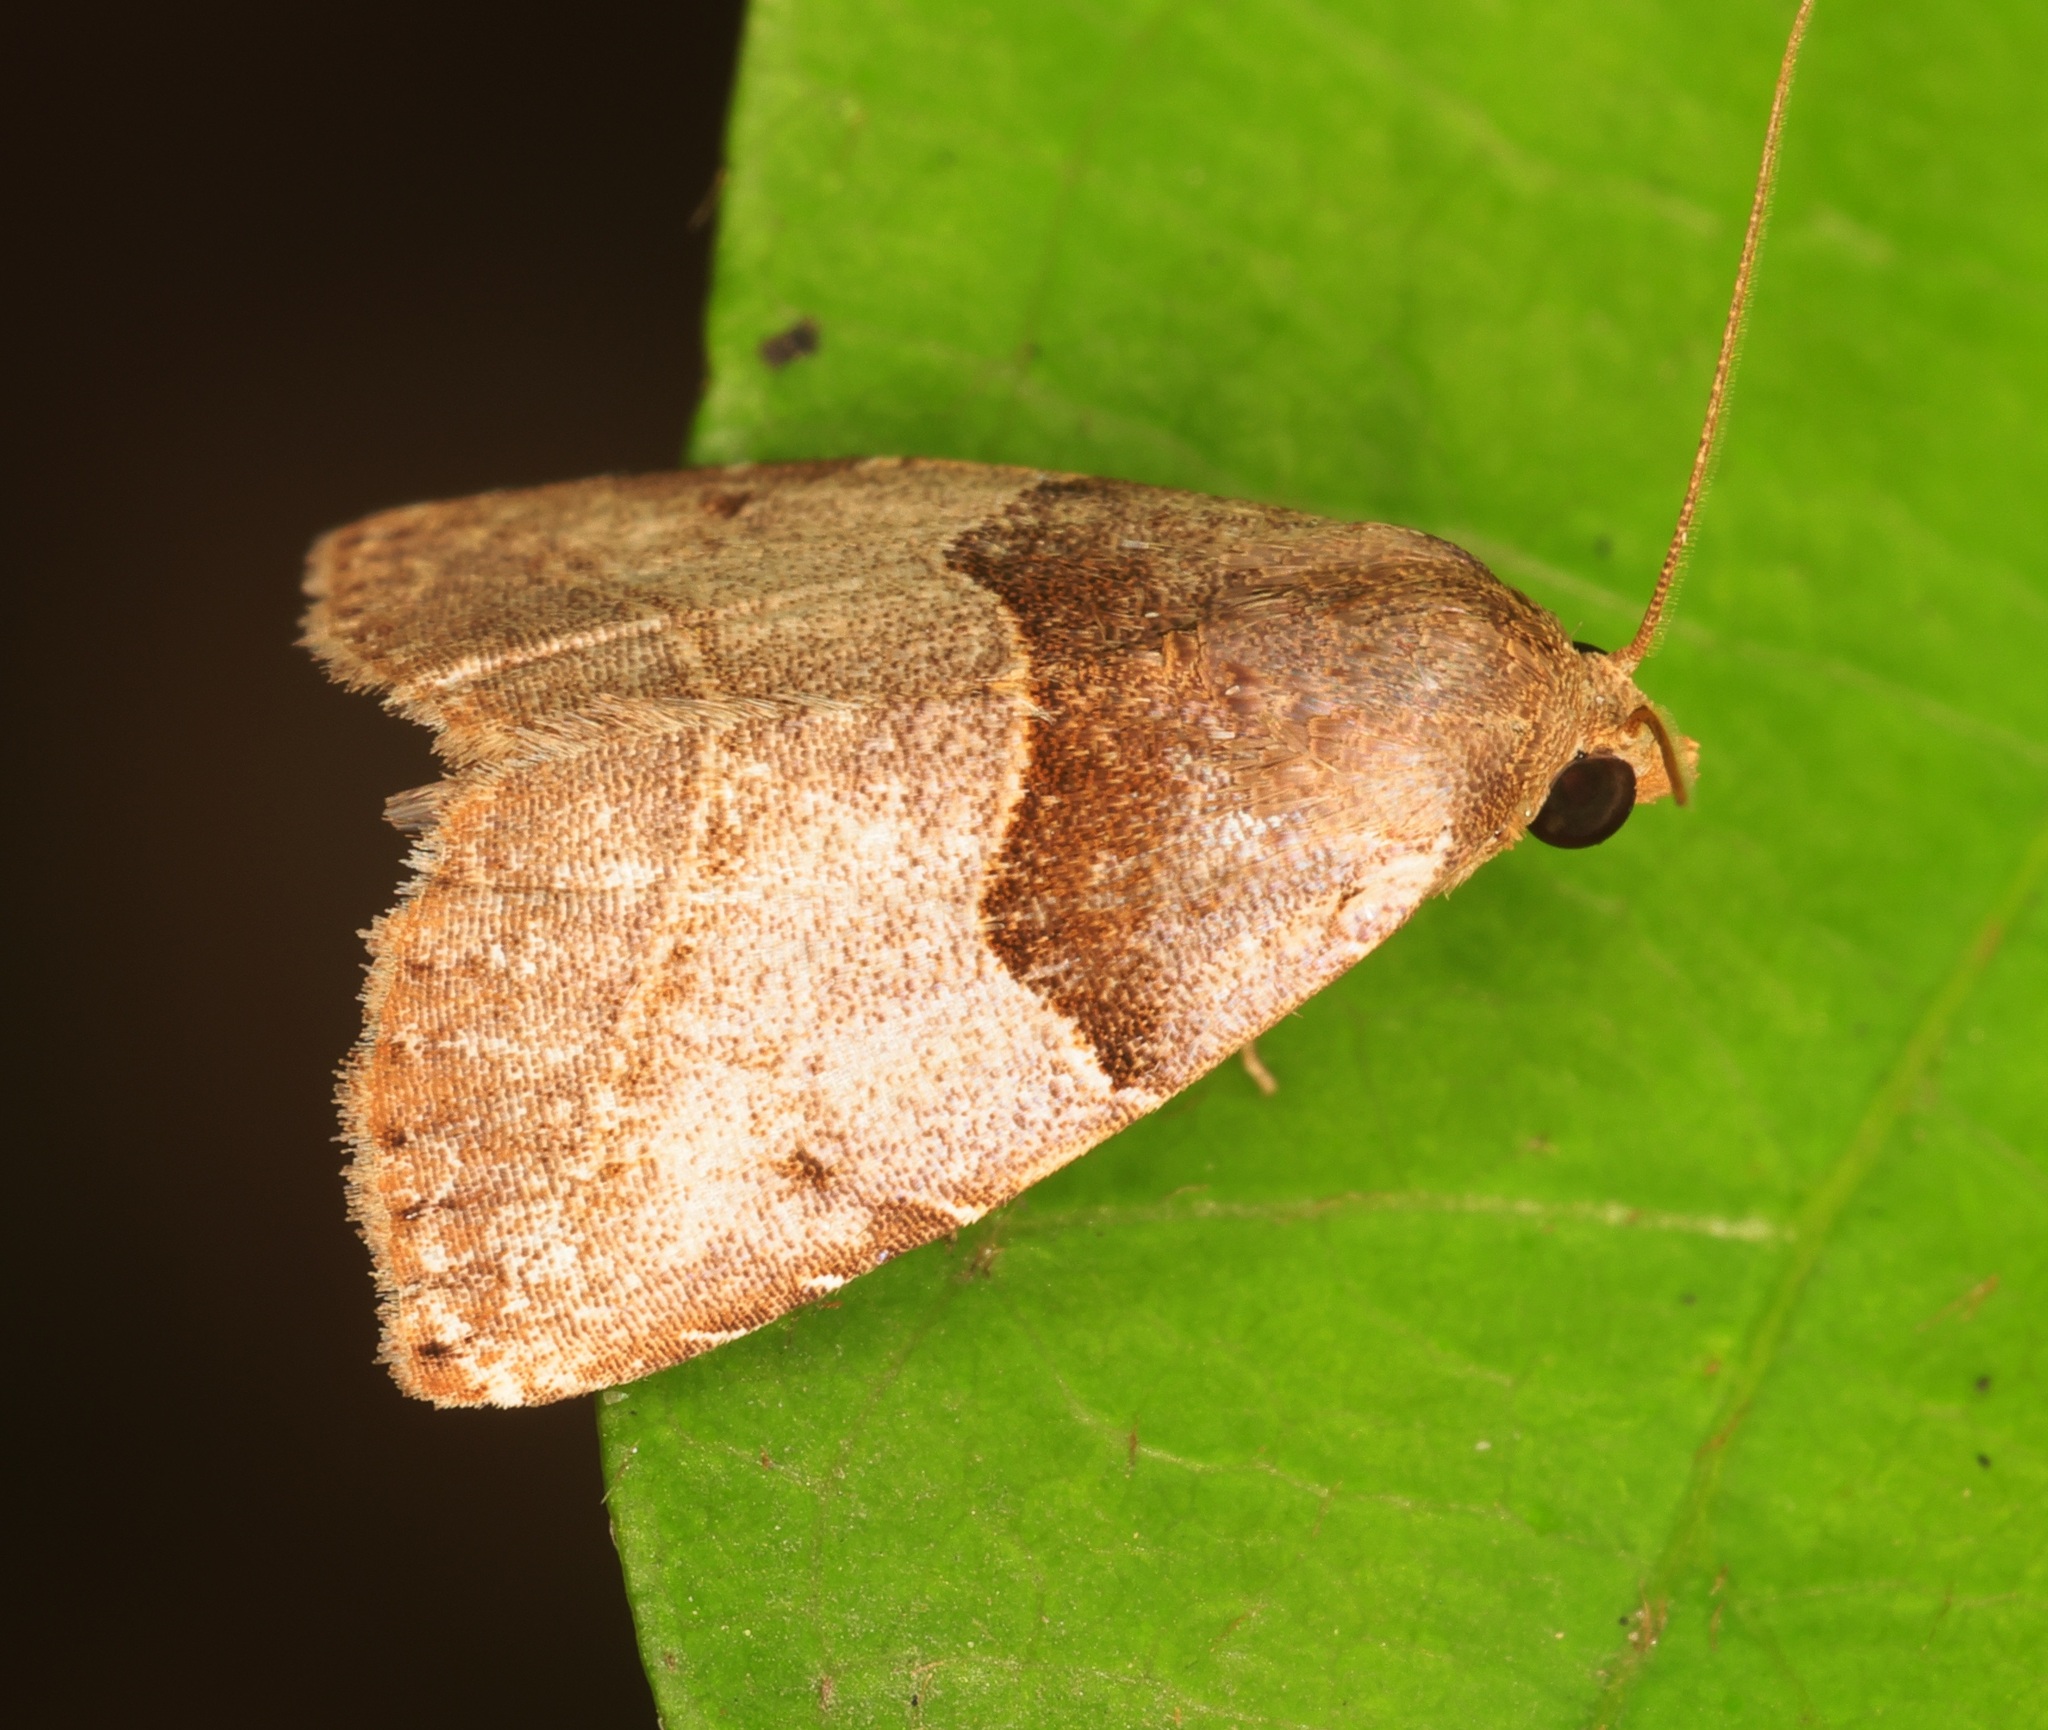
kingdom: Animalia
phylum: Arthropoda
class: Insecta
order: Lepidoptera
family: Erebidae
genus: Rivula
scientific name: Rivula basalis
